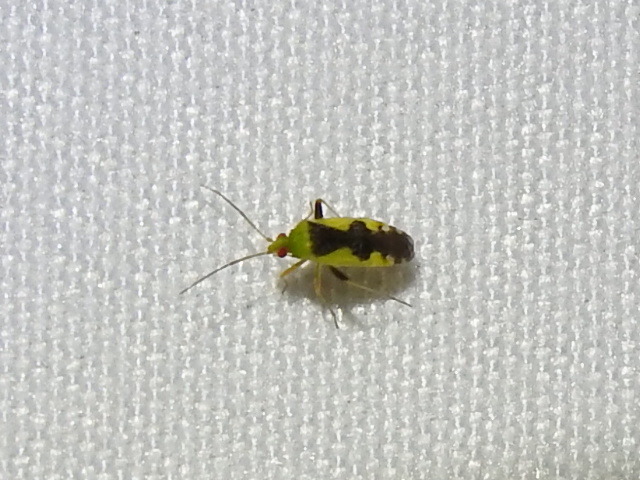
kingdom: Animalia
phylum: Arthropoda
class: Insecta
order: Hemiptera
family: Miridae
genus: Reuteroscopus
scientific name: Reuteroscopus femoralis
